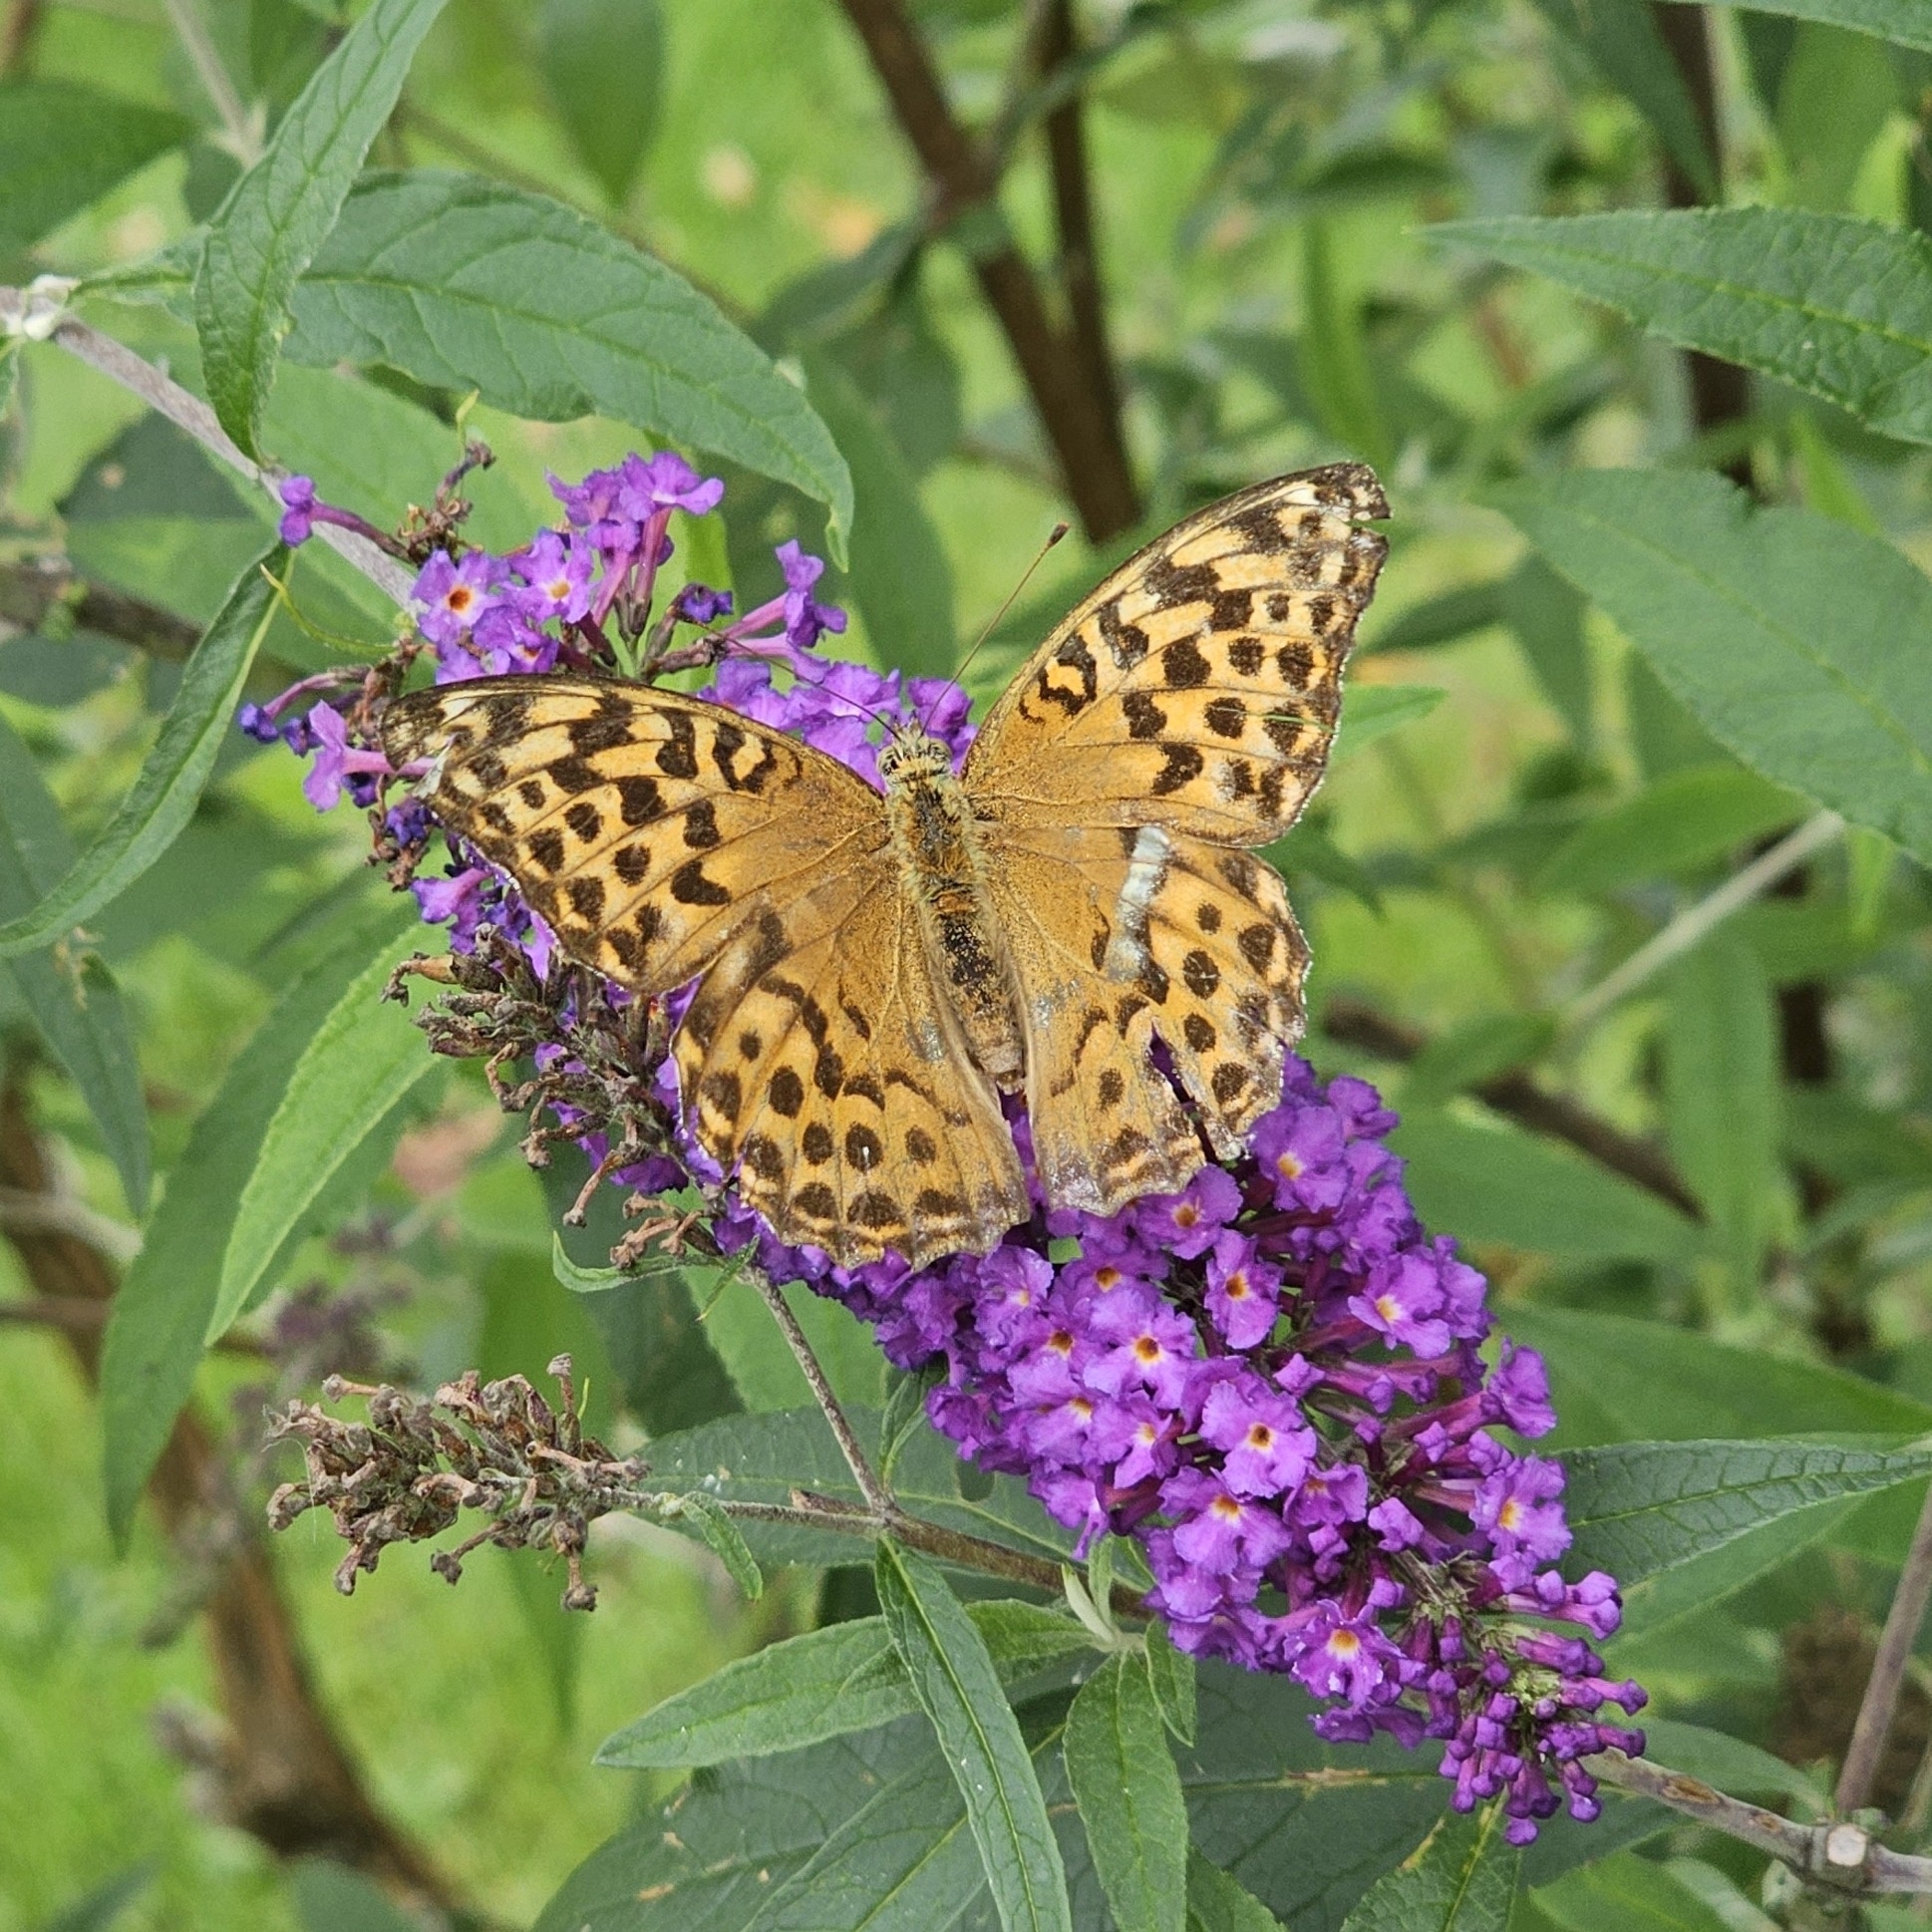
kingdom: Animalia
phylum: Arthropoda
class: Insecta
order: Lepidoptera
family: Nymphalidae
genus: Argynnis
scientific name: Argynnis paphia
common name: Silver-washed fritillary
